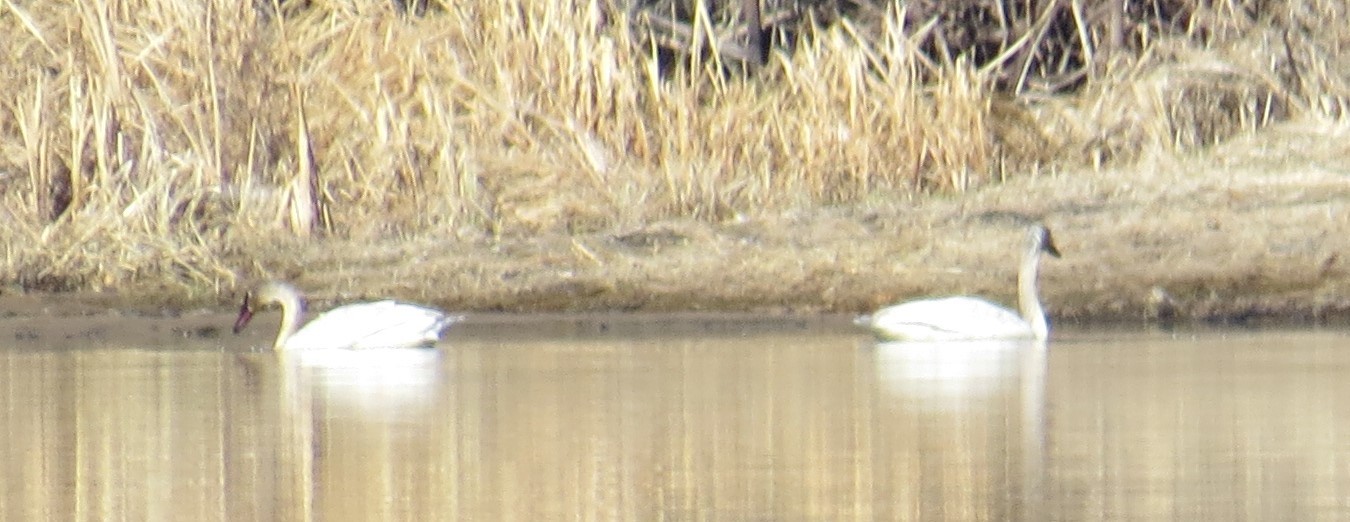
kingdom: Animalia
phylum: Chordata
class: Aves
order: Anseriformes
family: Anatidae
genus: Cygnus
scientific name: Cygnus buccinator
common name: Trumpeter swan
